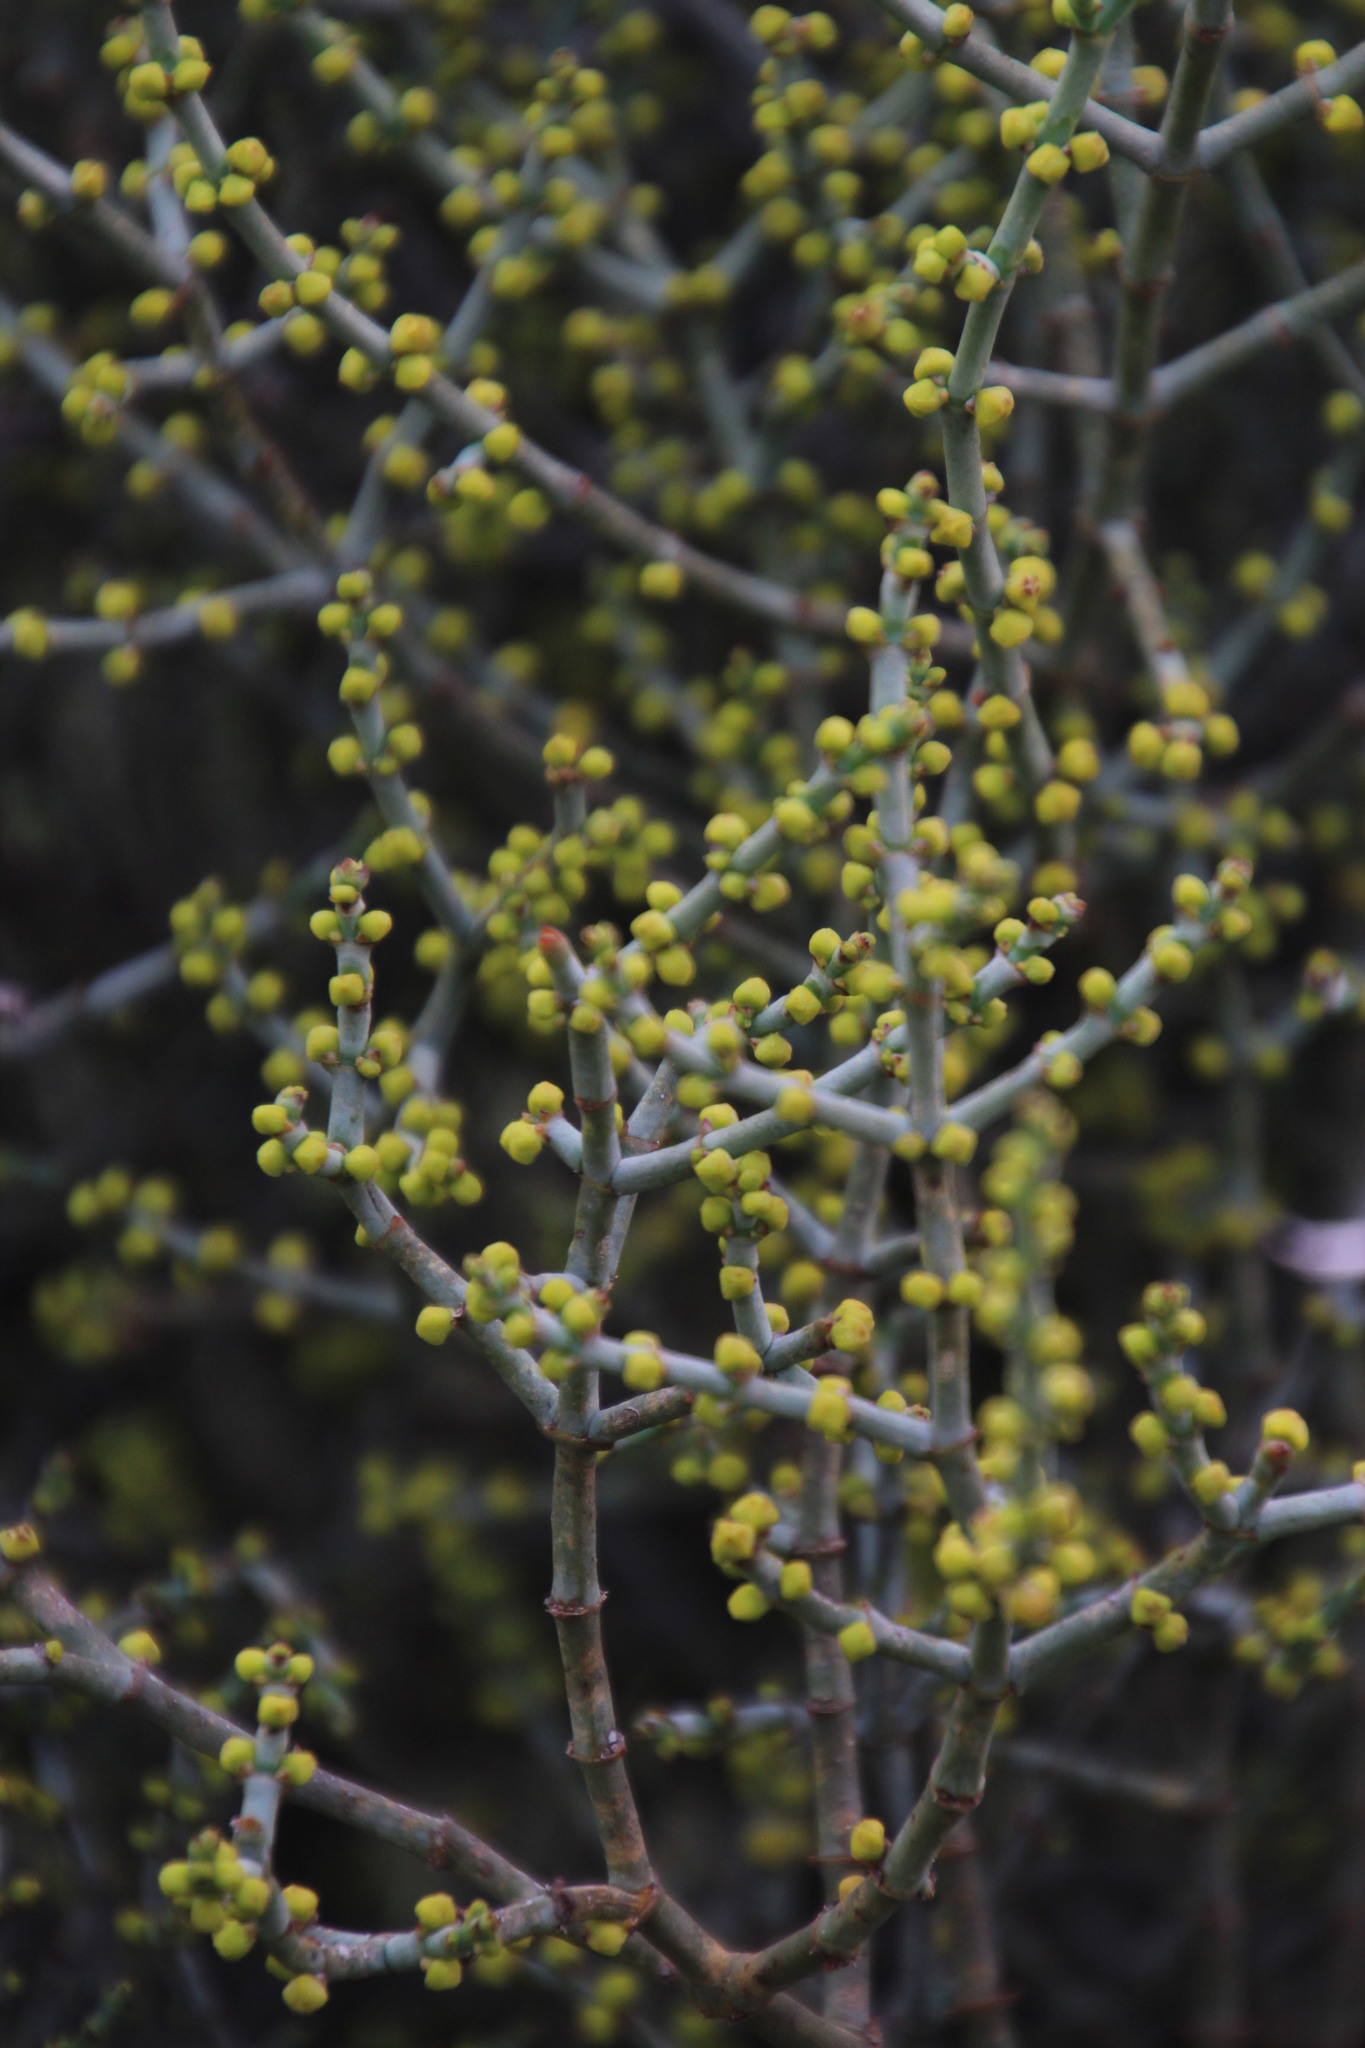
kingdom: Plantae
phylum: Tracheophyta
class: Magnoliopsida
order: Santalales
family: Viscaceae
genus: Viscum
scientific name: Viscum capense
